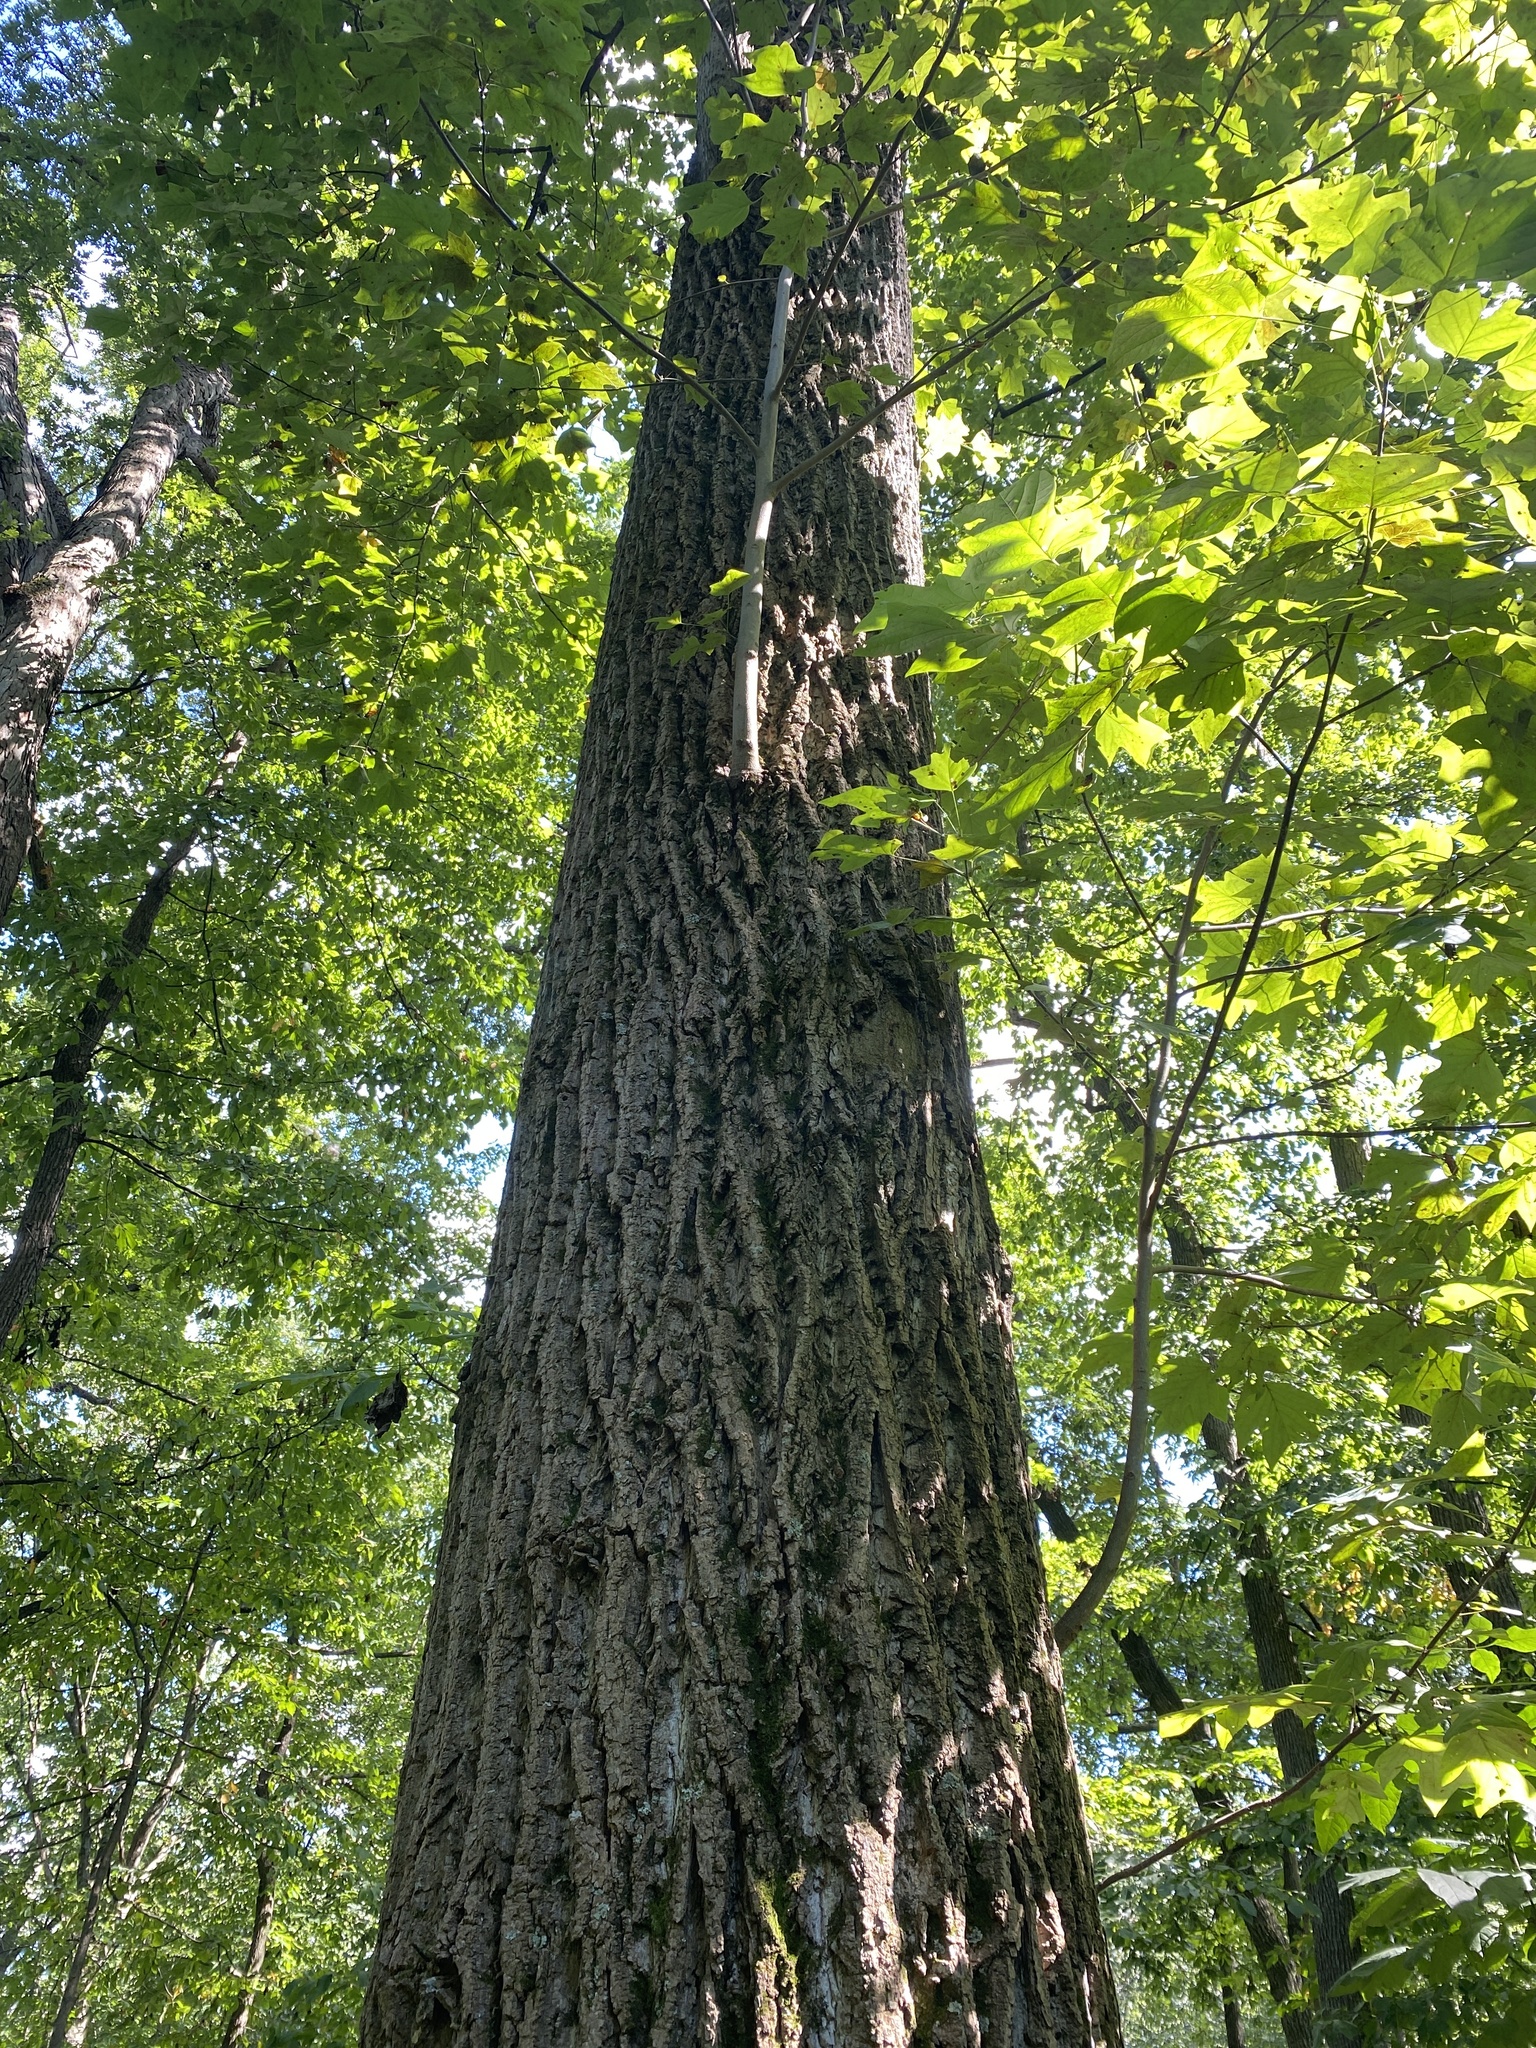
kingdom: Plantae
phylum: Tracheophyta
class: Magnoliopsida
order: Magnoliales
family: Magnoliaceae
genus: Liriodendron
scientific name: Liriodendron tulipifera
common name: Tulip tree
